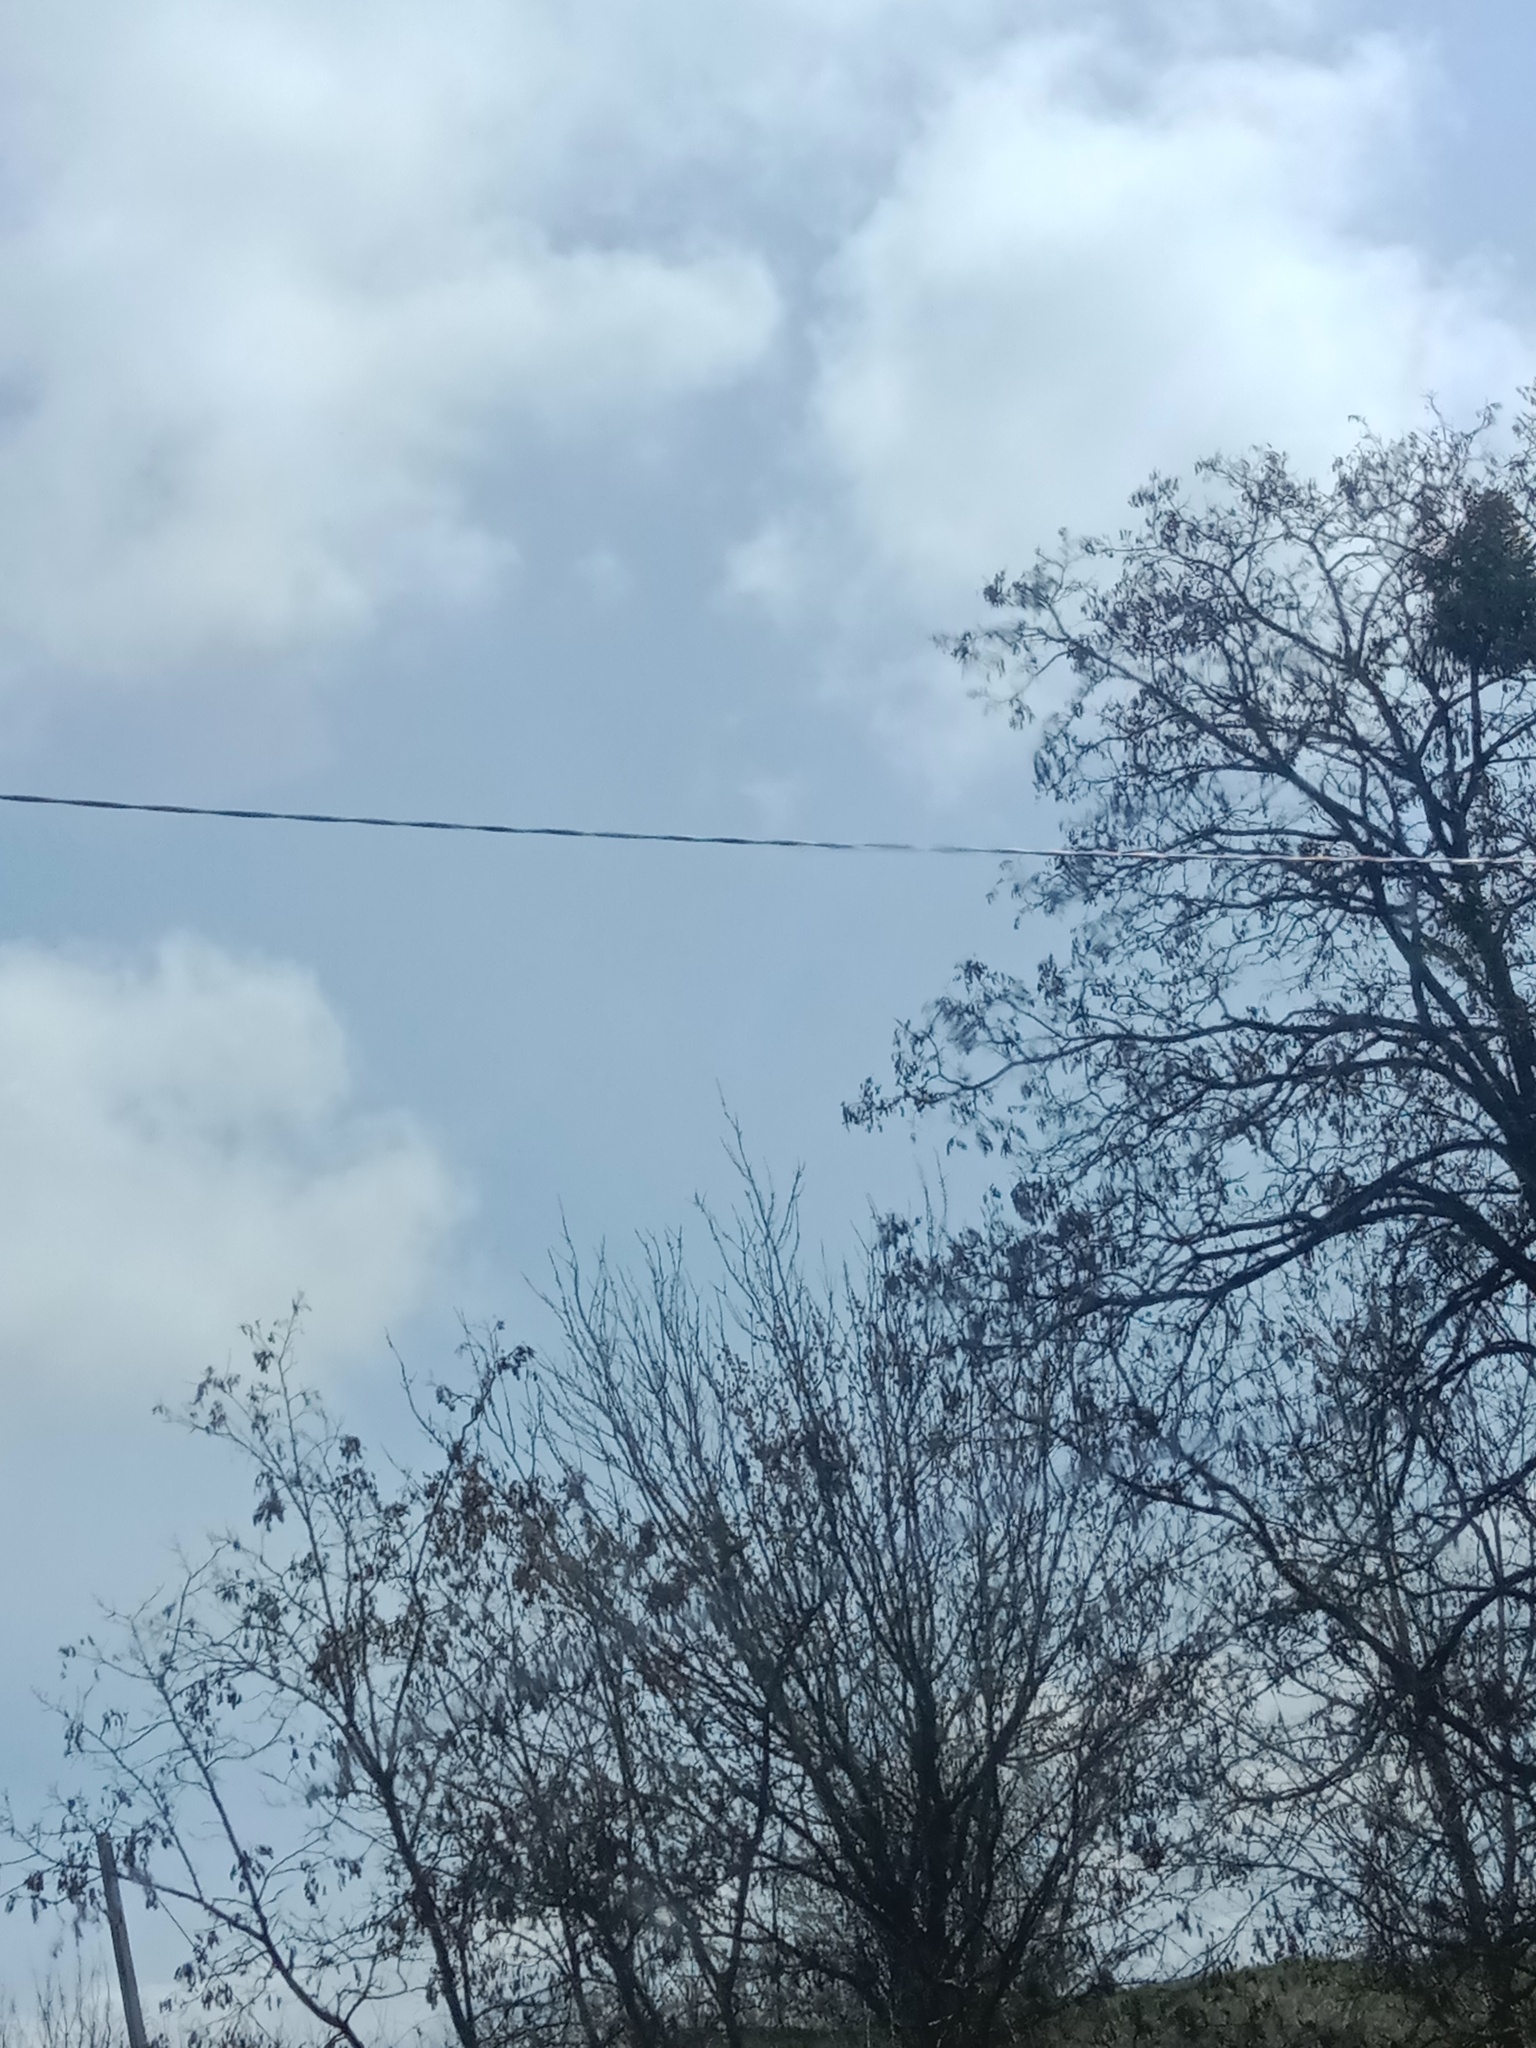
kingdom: Plantae
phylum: Tracheophyta
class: Magnoliopsida
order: Santalales
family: Viscaceae
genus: Viscum
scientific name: Viscum album
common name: Mistletoe
